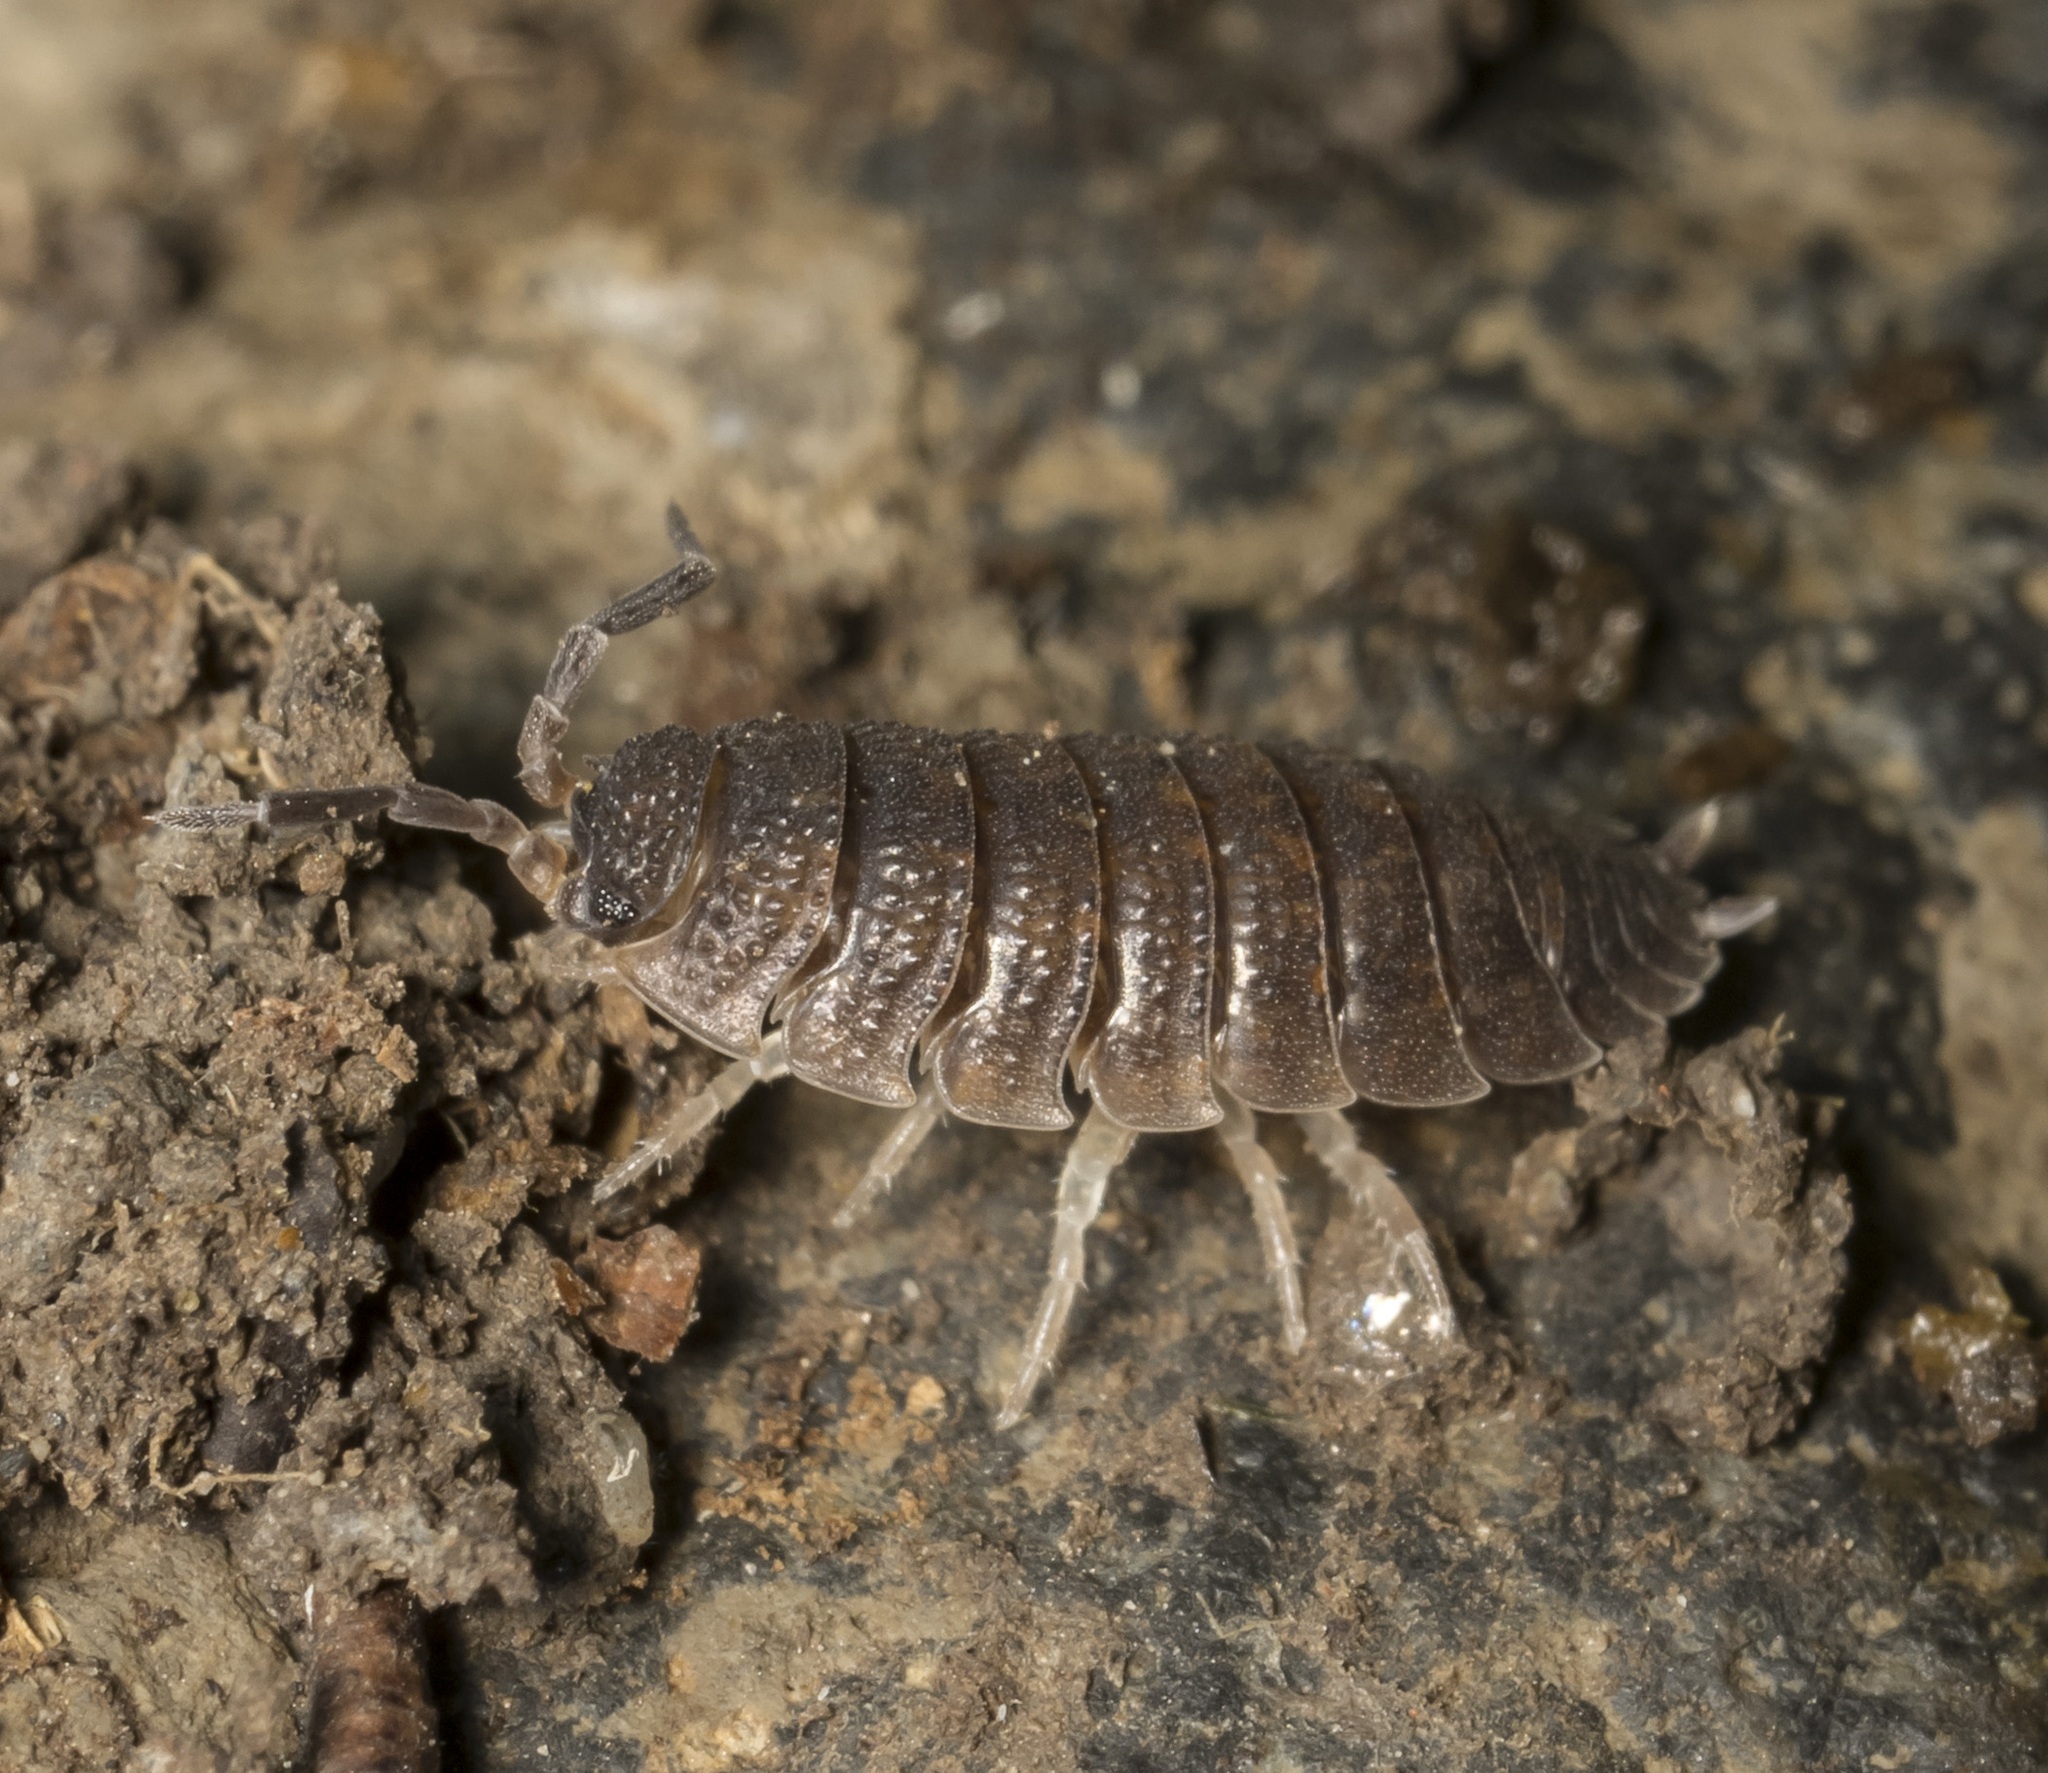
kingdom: Animalia
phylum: Arthropoda
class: Malacostraca
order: Isopoda
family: Porcellionidae
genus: Porcellio
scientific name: Porcellio scaber
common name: Common rough woodlouse
